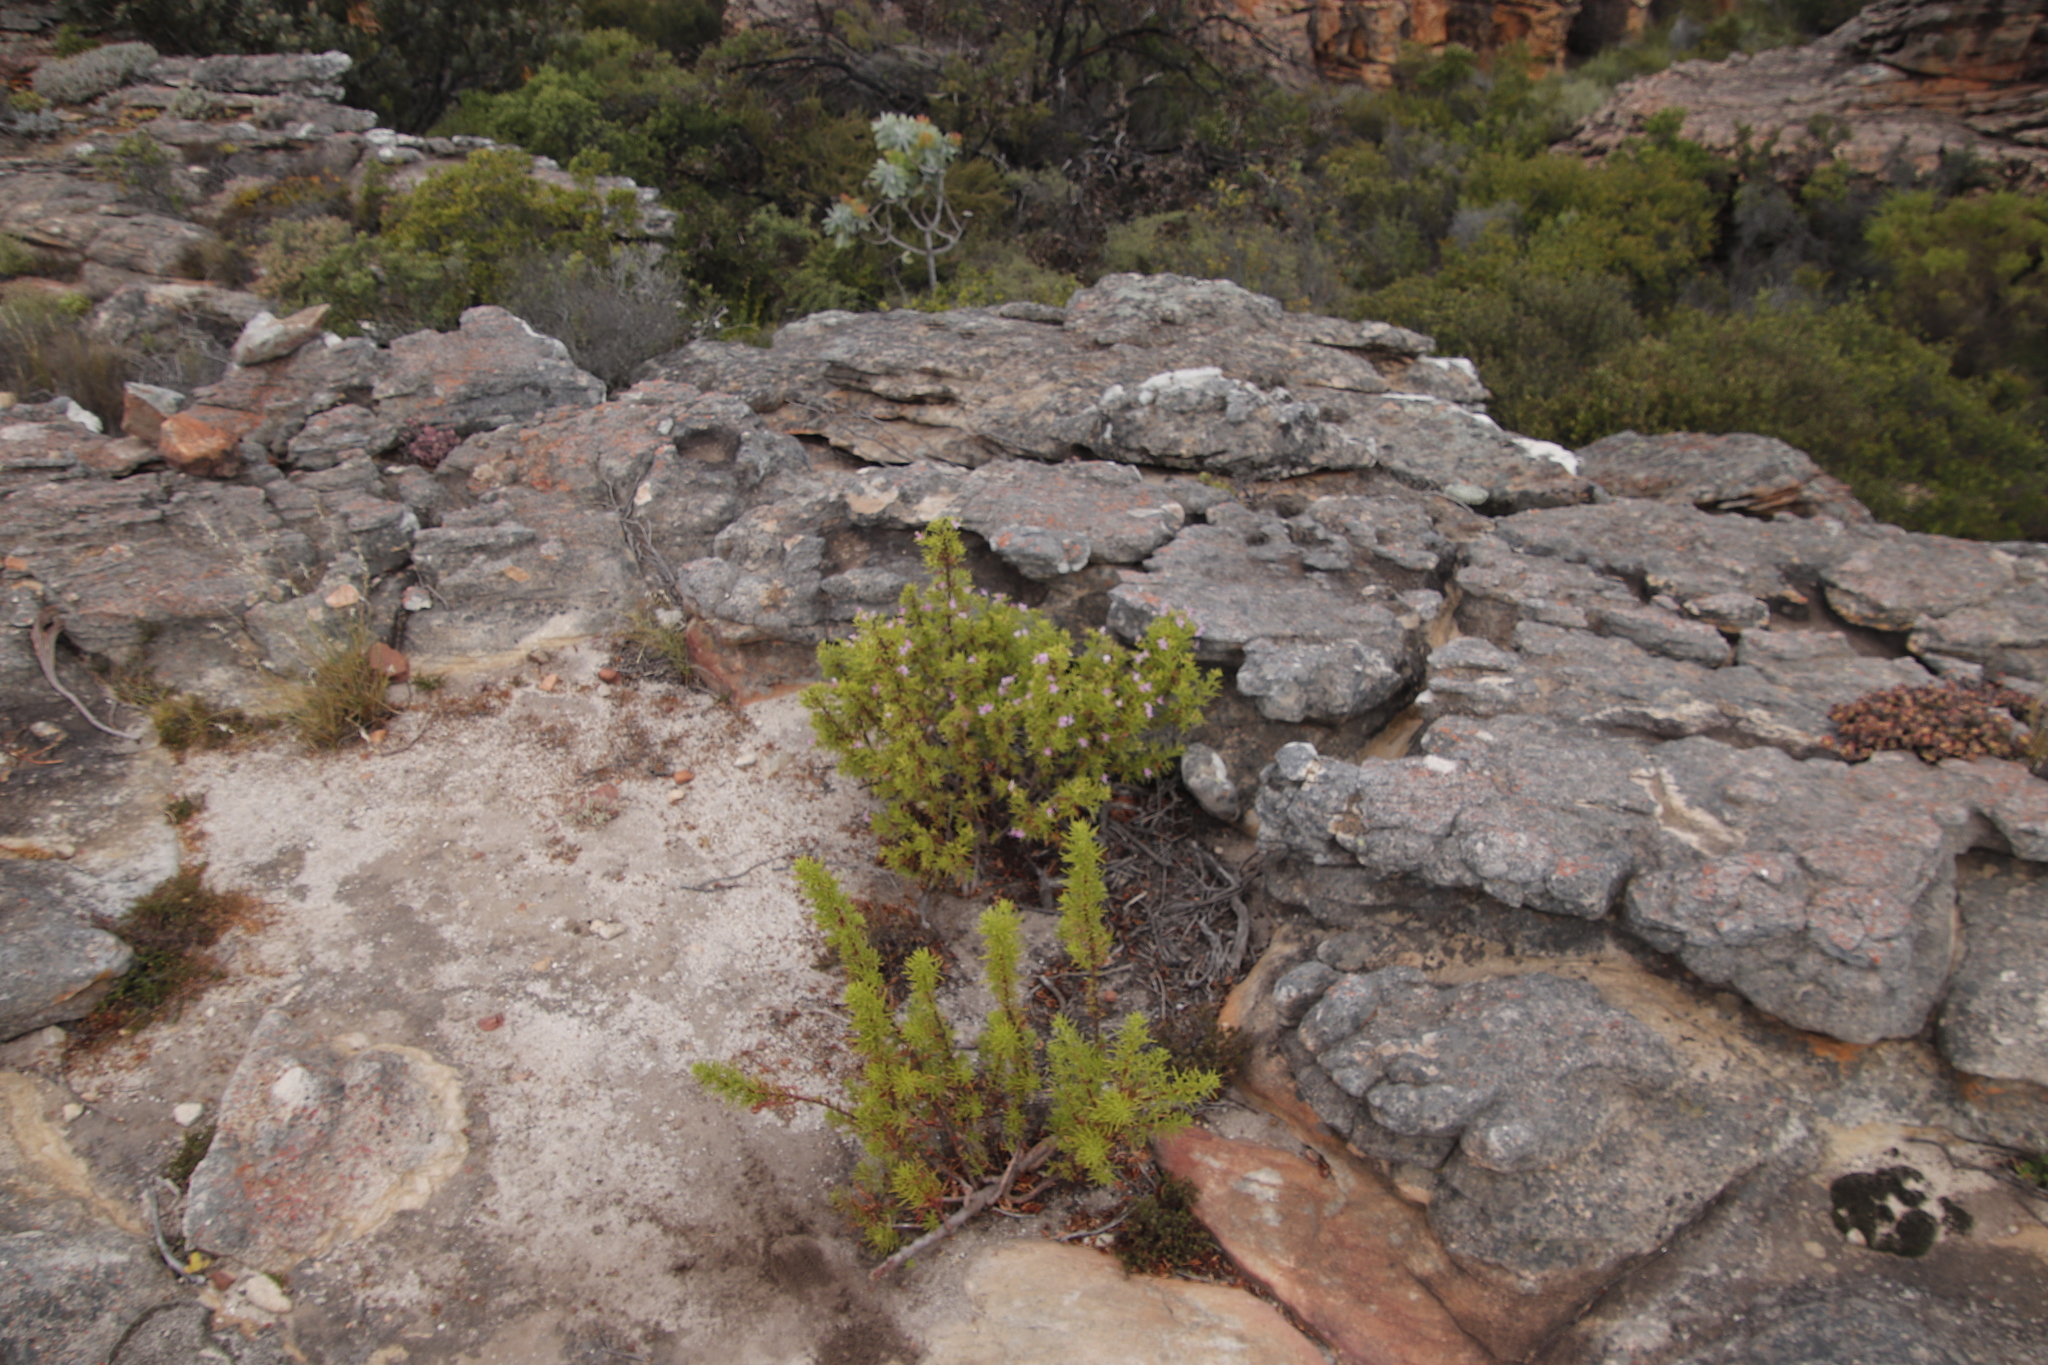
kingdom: Plantae
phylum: Tracheophyta
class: Magnoliopsida
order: Geraniales
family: Geraniaceae
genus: Pelargonium
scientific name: Pelargonium scabrum
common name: Apricot geranium
